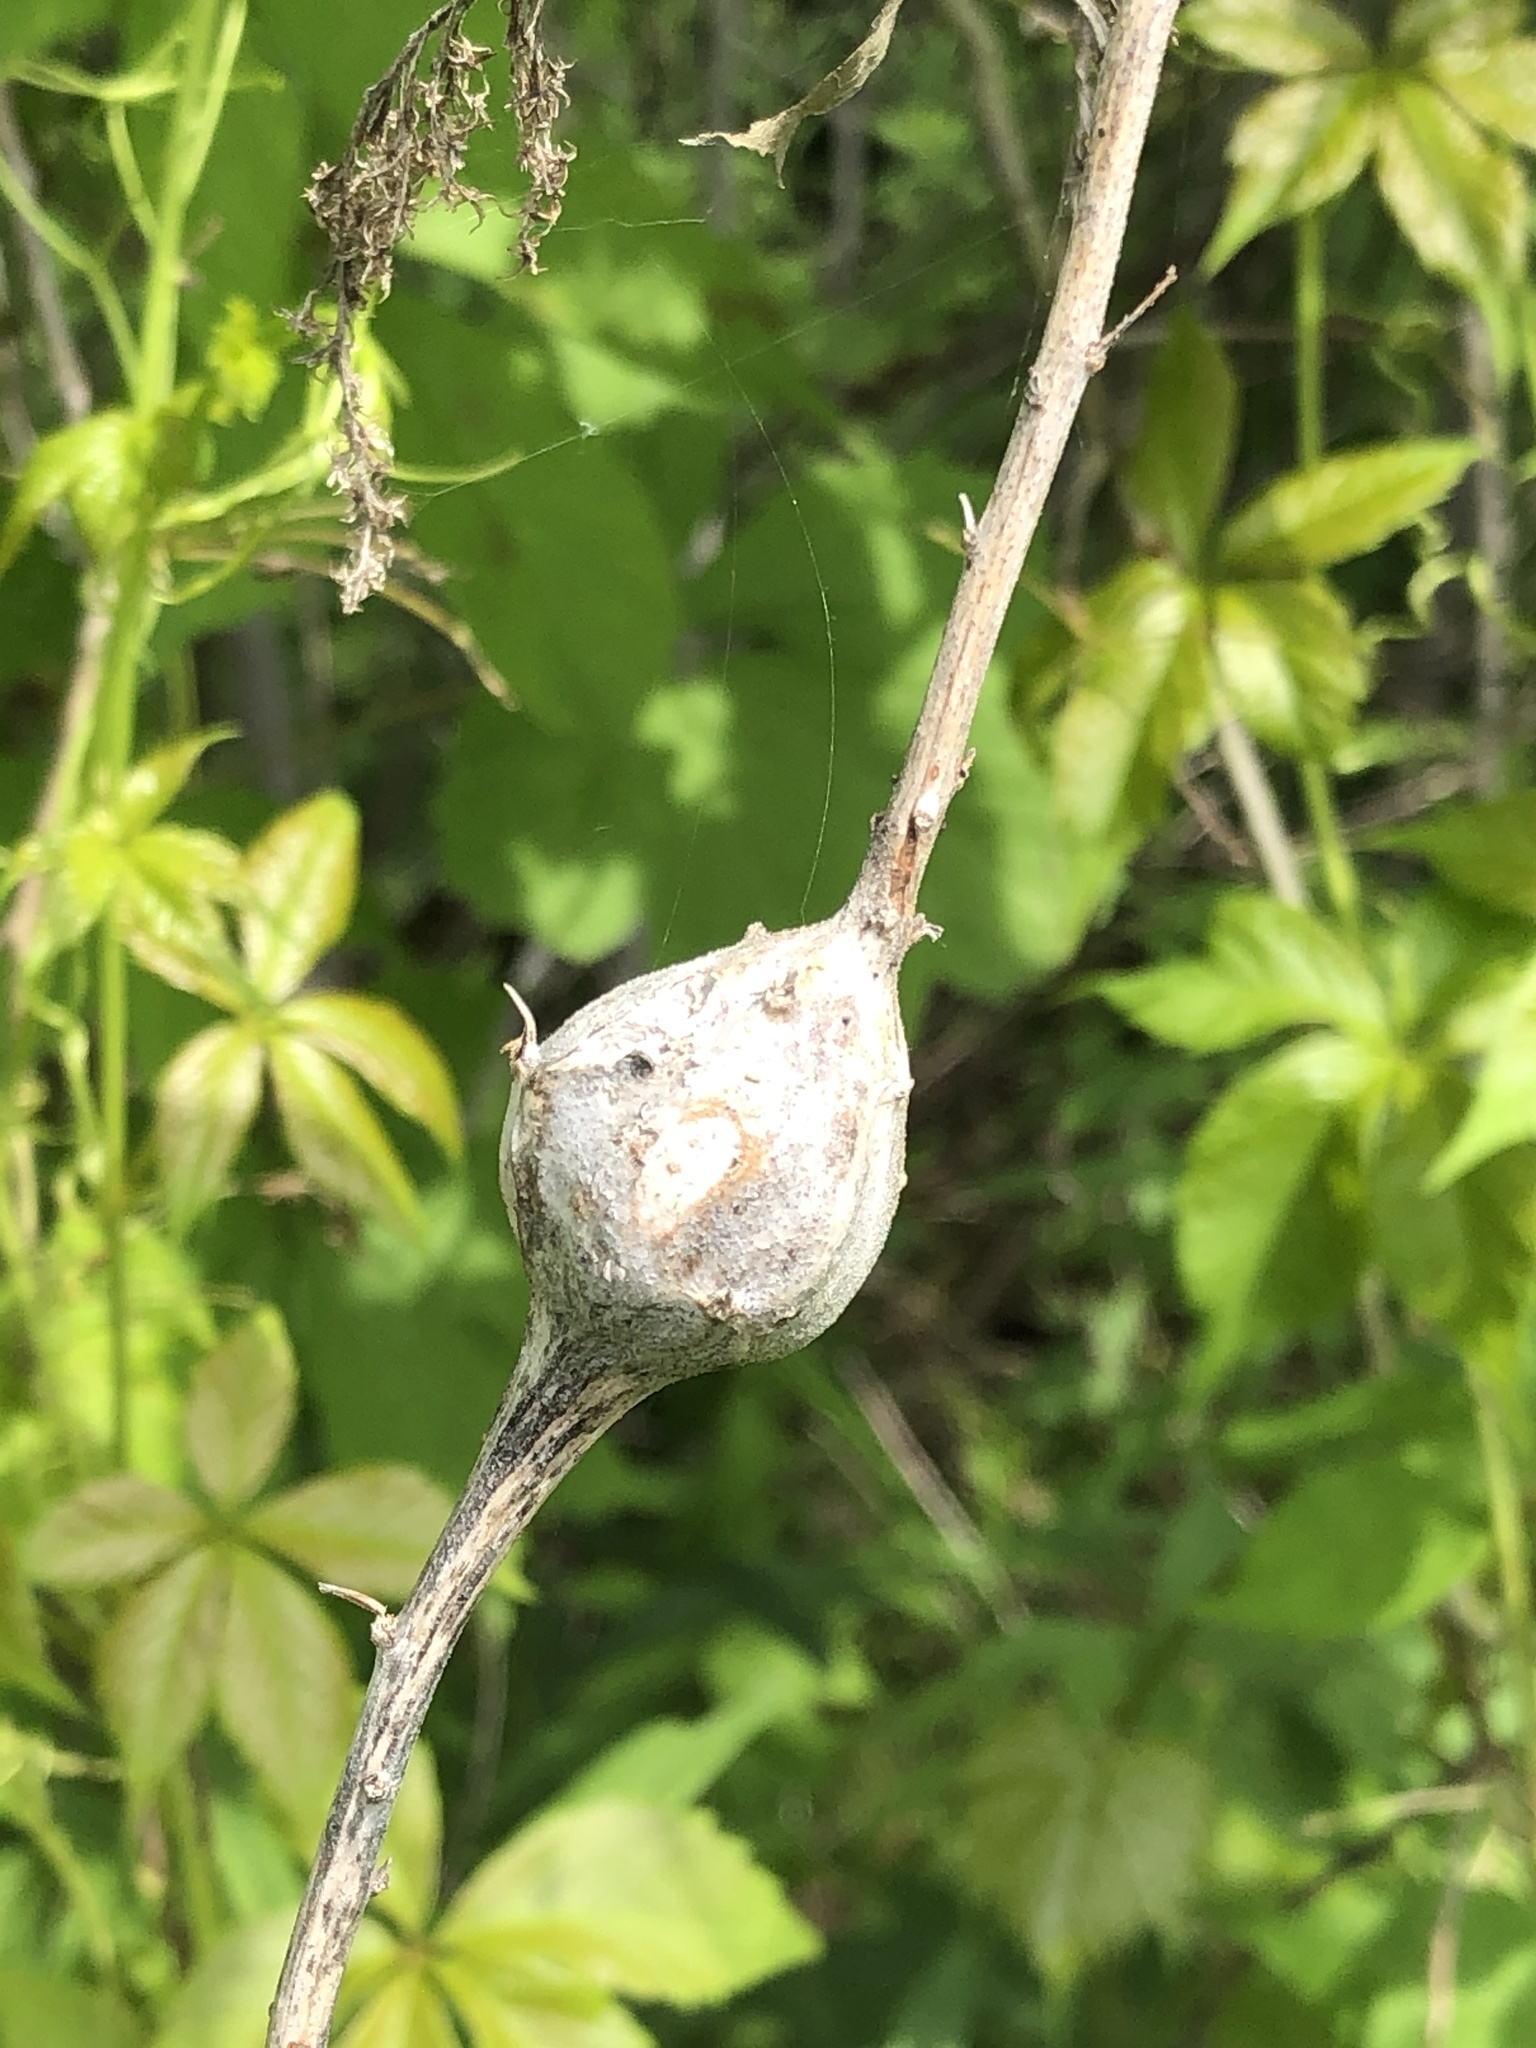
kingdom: Animalia
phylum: Arthropoda
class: Insecta
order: Diptera
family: Tephritidae
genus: Eurosta
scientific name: Eurosta solidaginis
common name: Goldenrod gall fly
